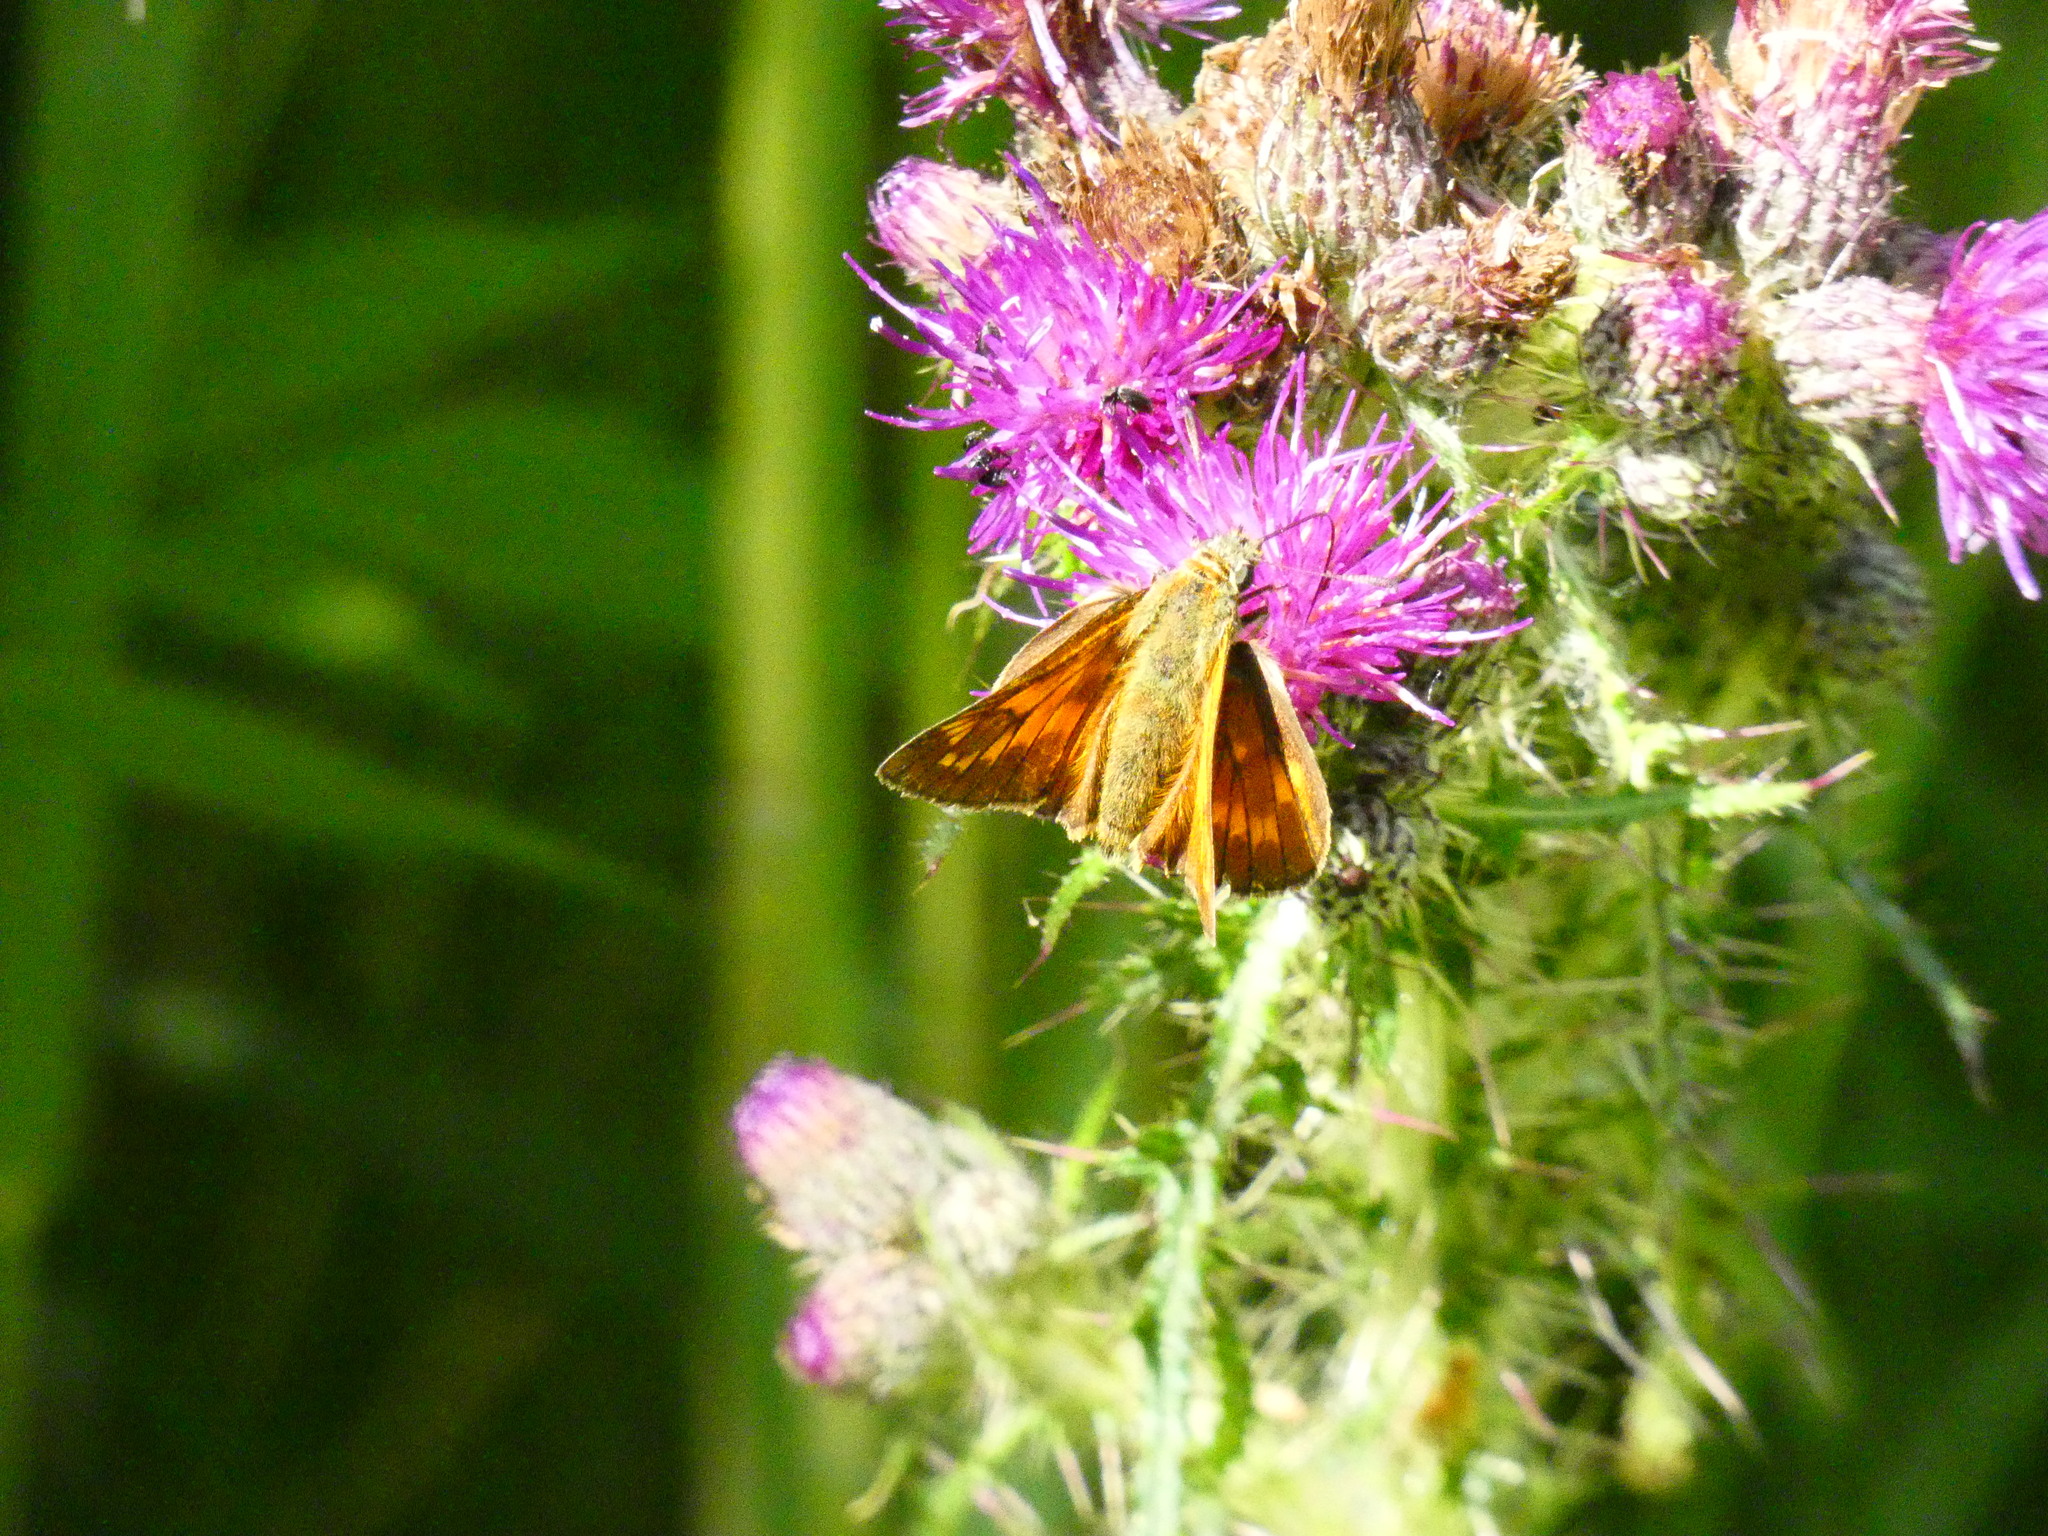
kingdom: Animalia
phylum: Arthropoda
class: Insecta
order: Lepidoptera
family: Hesperiidae
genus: Ochlodes
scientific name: Ochlodes venata
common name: Large skipper
